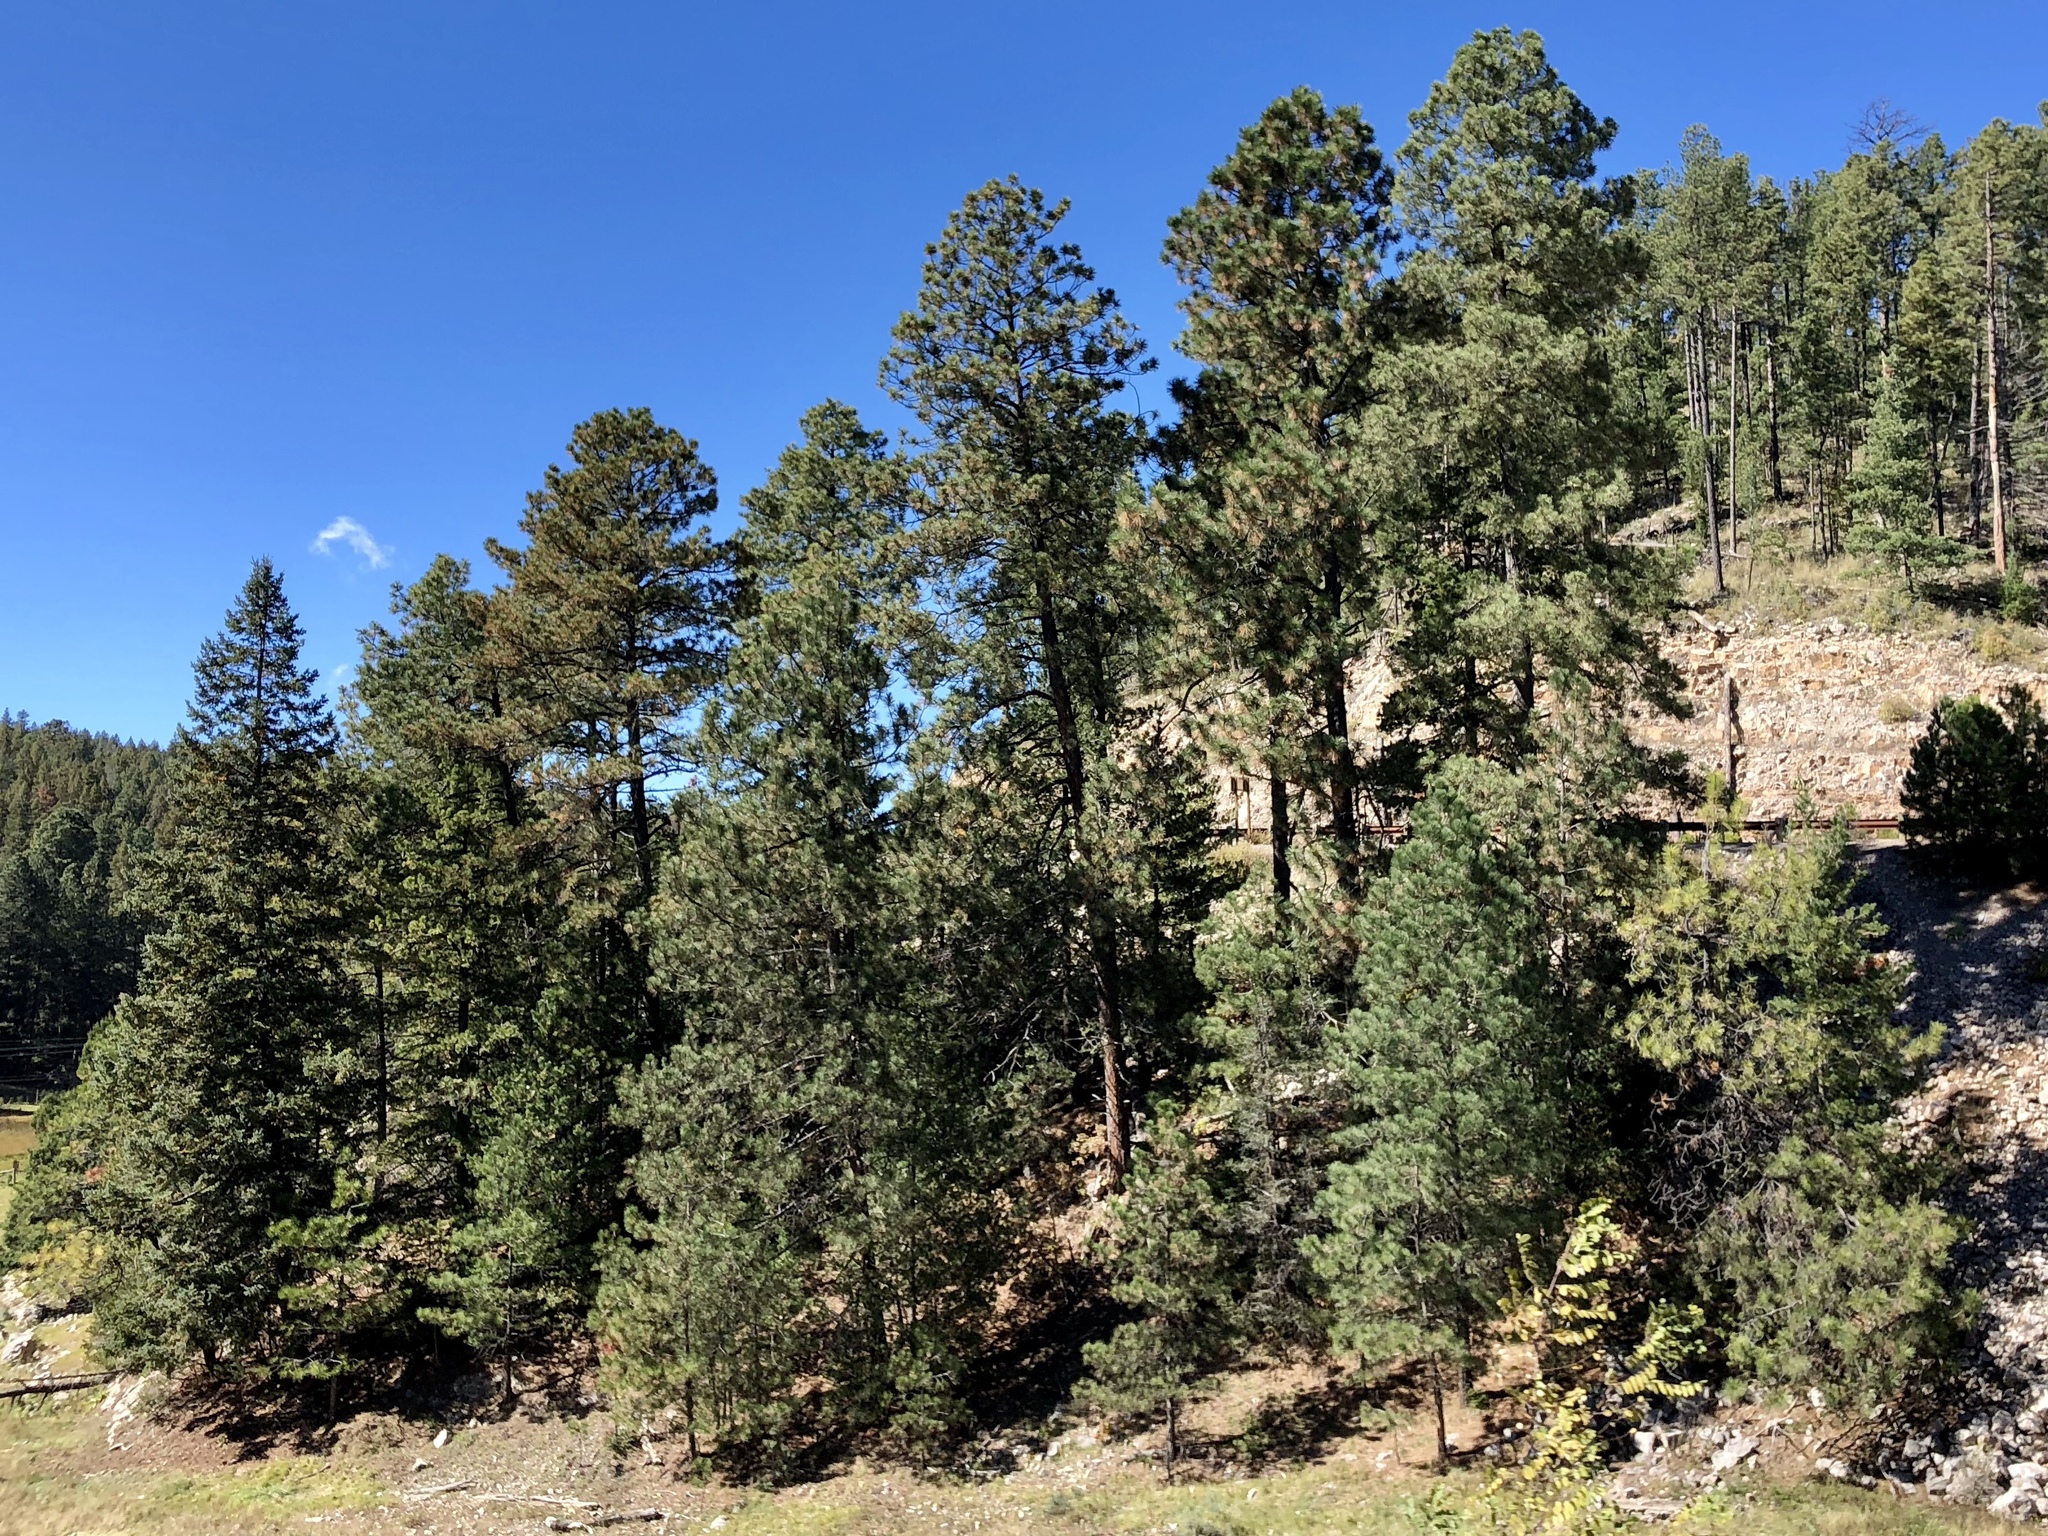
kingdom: Plantae
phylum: Tracheophyta
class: Pinopsida
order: Pinales
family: Pinaceae
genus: Pinus
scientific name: Pinus ponderosa
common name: Western yellow-pine
